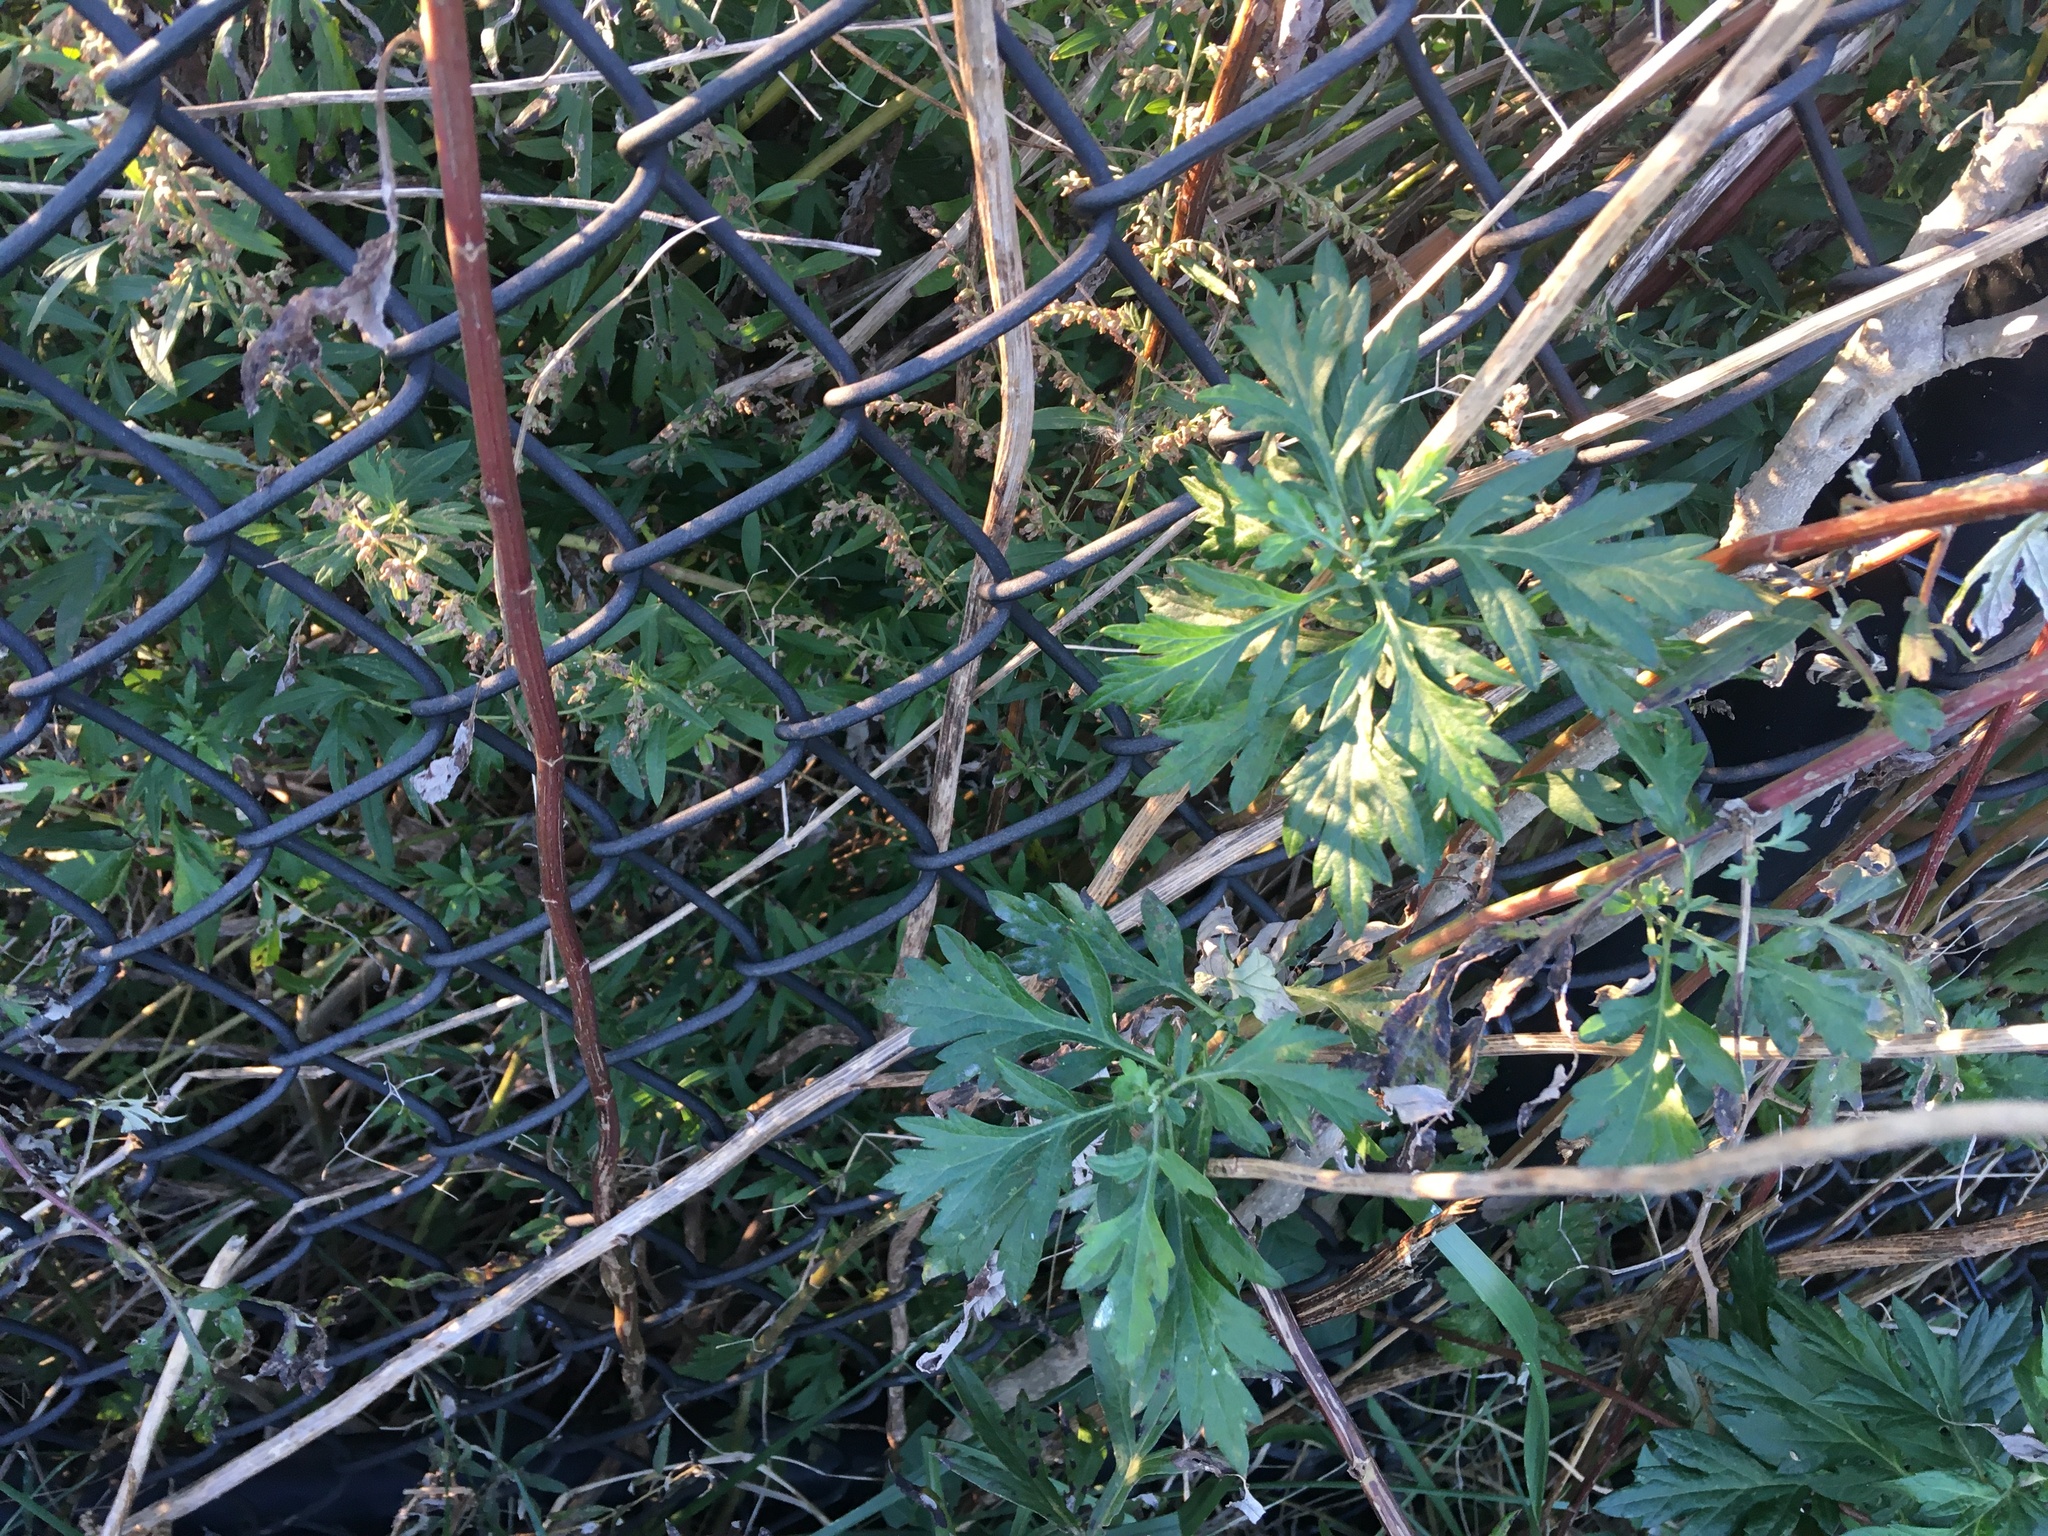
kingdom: Plantae
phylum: Tracheophyta
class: Magnoliopsida
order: Asterales
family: Asteraceae
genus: Artemisia
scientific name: Artemisia vulgaris
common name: Mugwort
